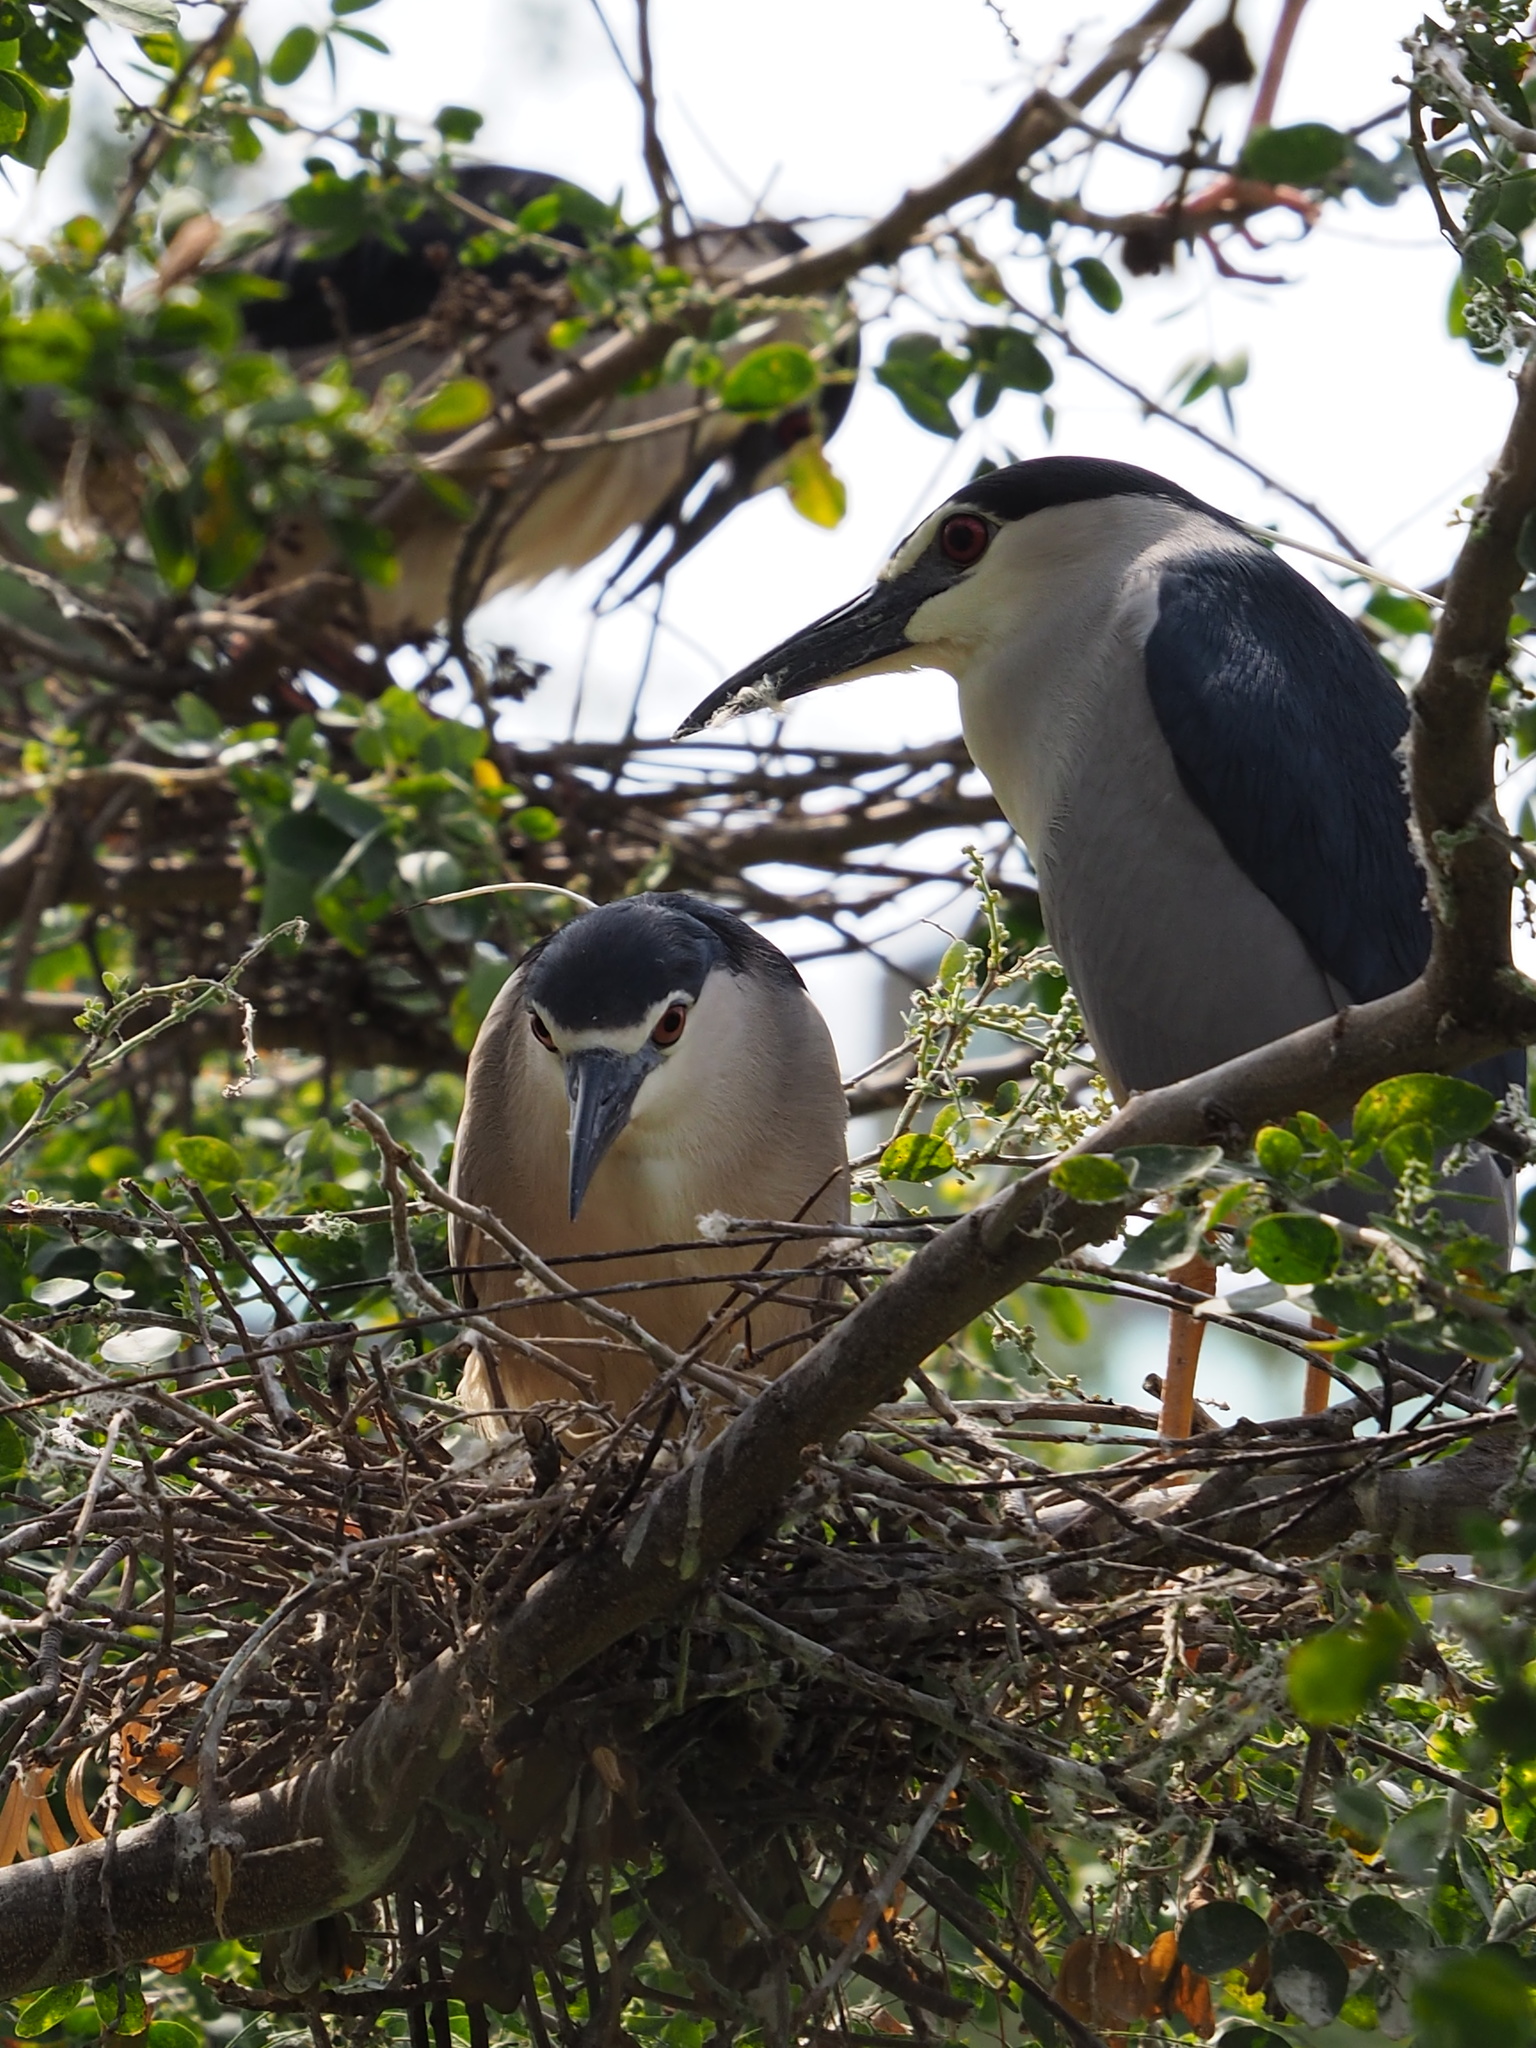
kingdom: Animalia
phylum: Chordata
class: Aves
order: Pelecaniformes
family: Ardeidae
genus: Nycticorax
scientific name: Nycticorax nycticorax
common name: Black-crowned night heron
